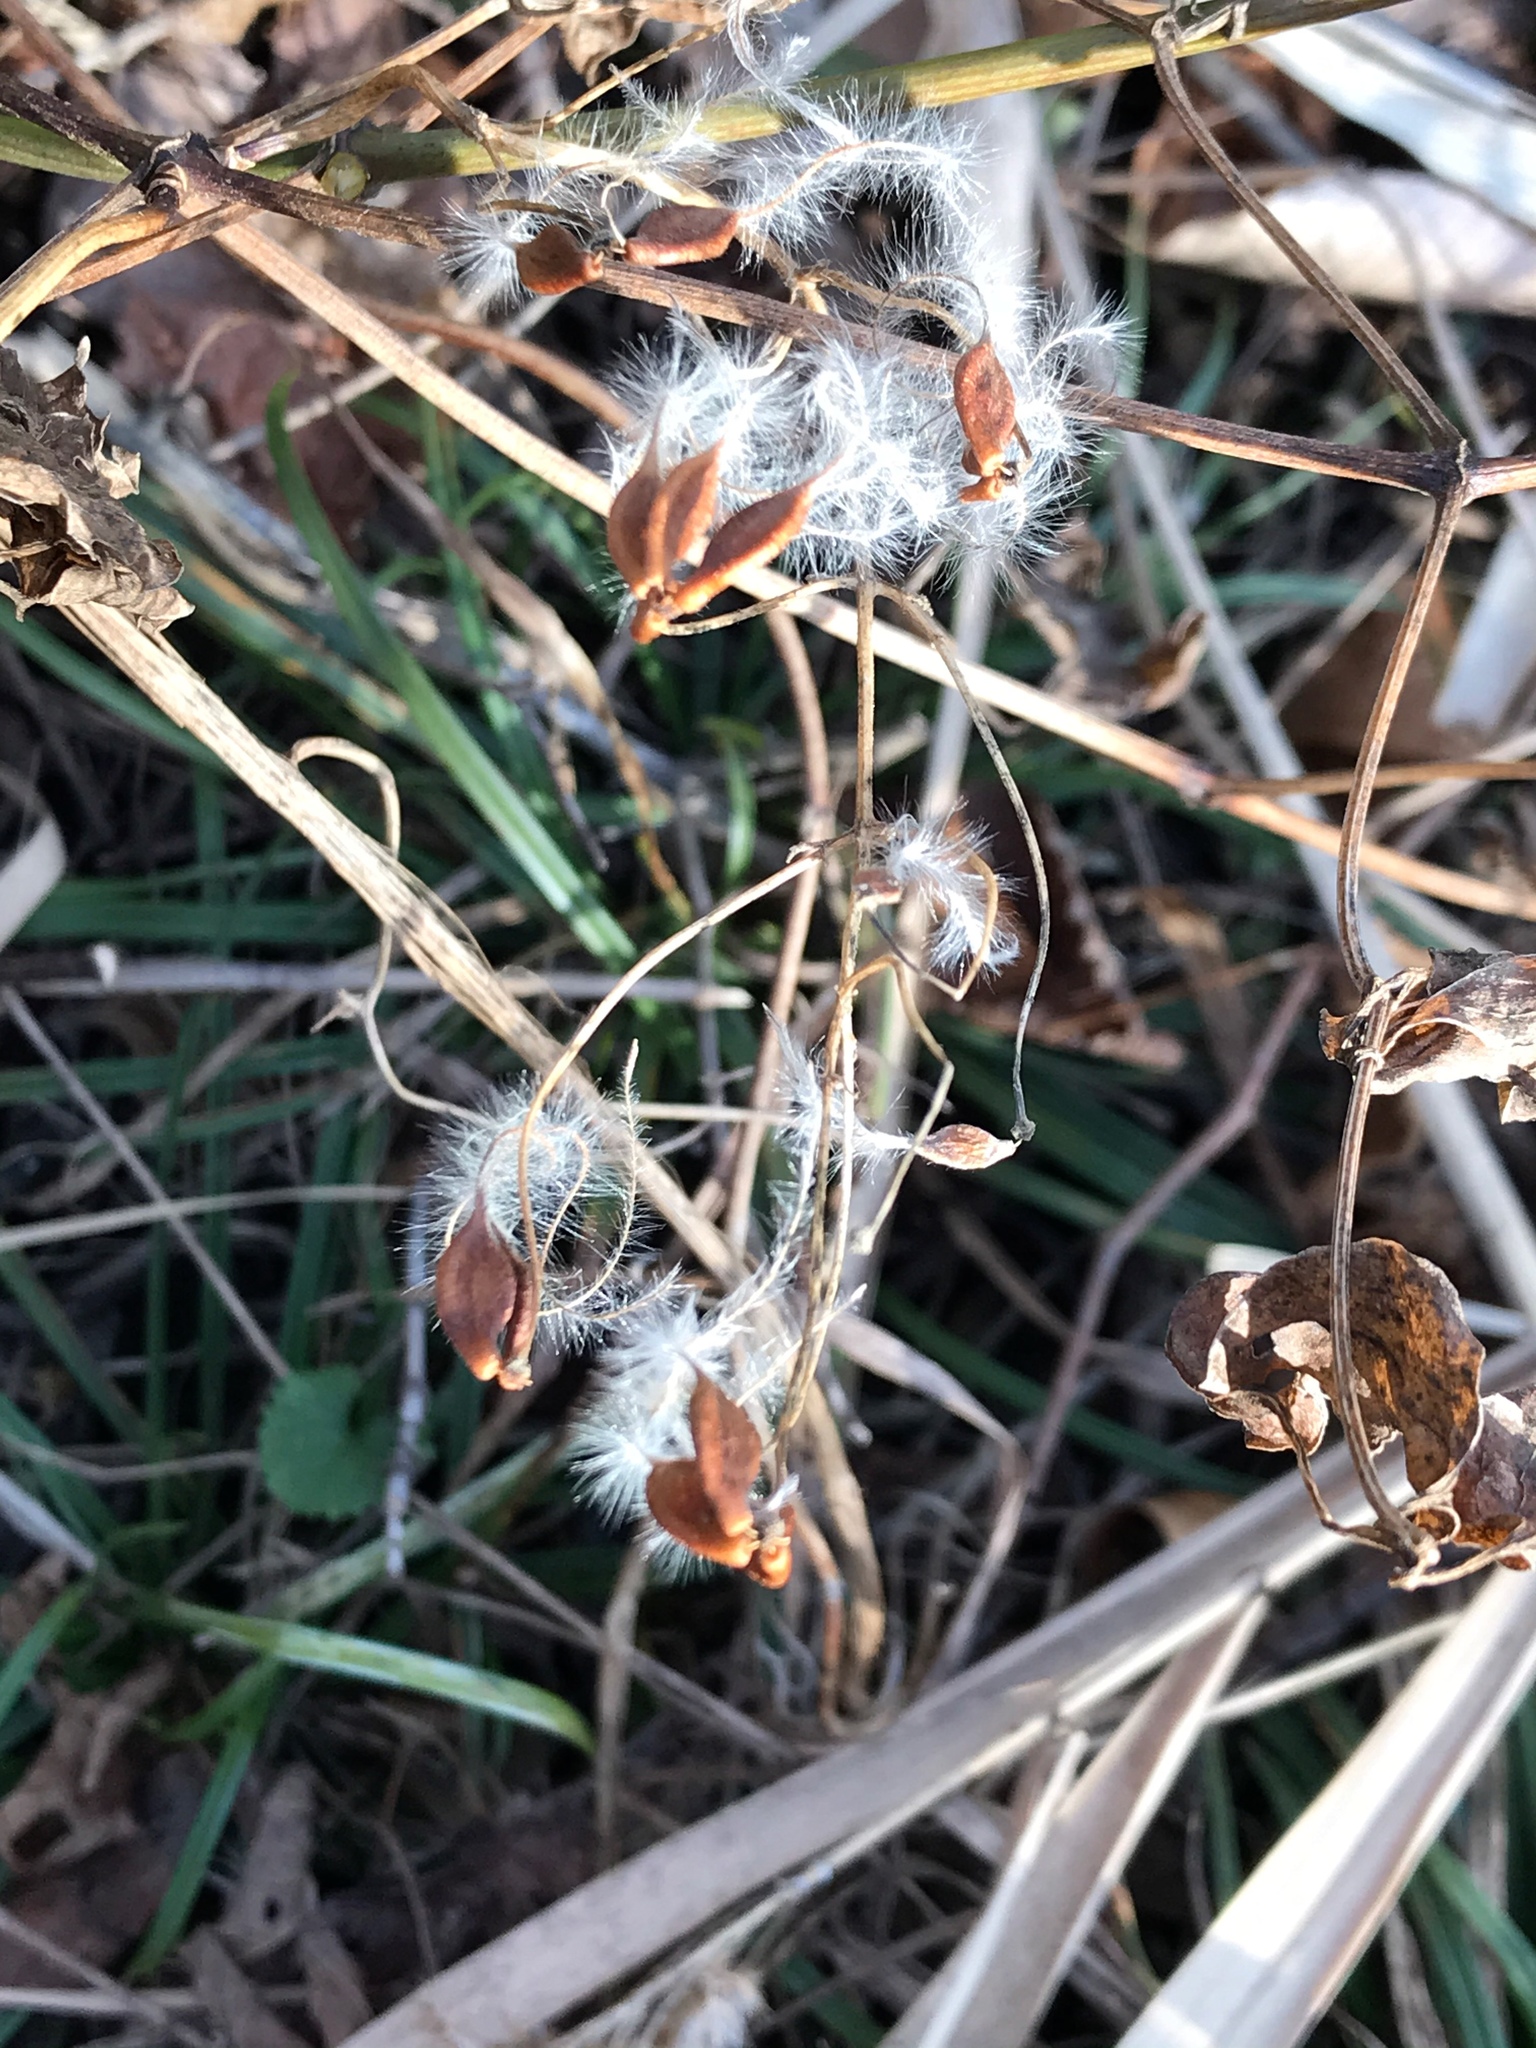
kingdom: Plantae
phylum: Tracheophyta
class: Magnoliopsida
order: Ranunculales
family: Ranunculaceae
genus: Clematis
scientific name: Clematis terniflora
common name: Sweet autumn clematis
